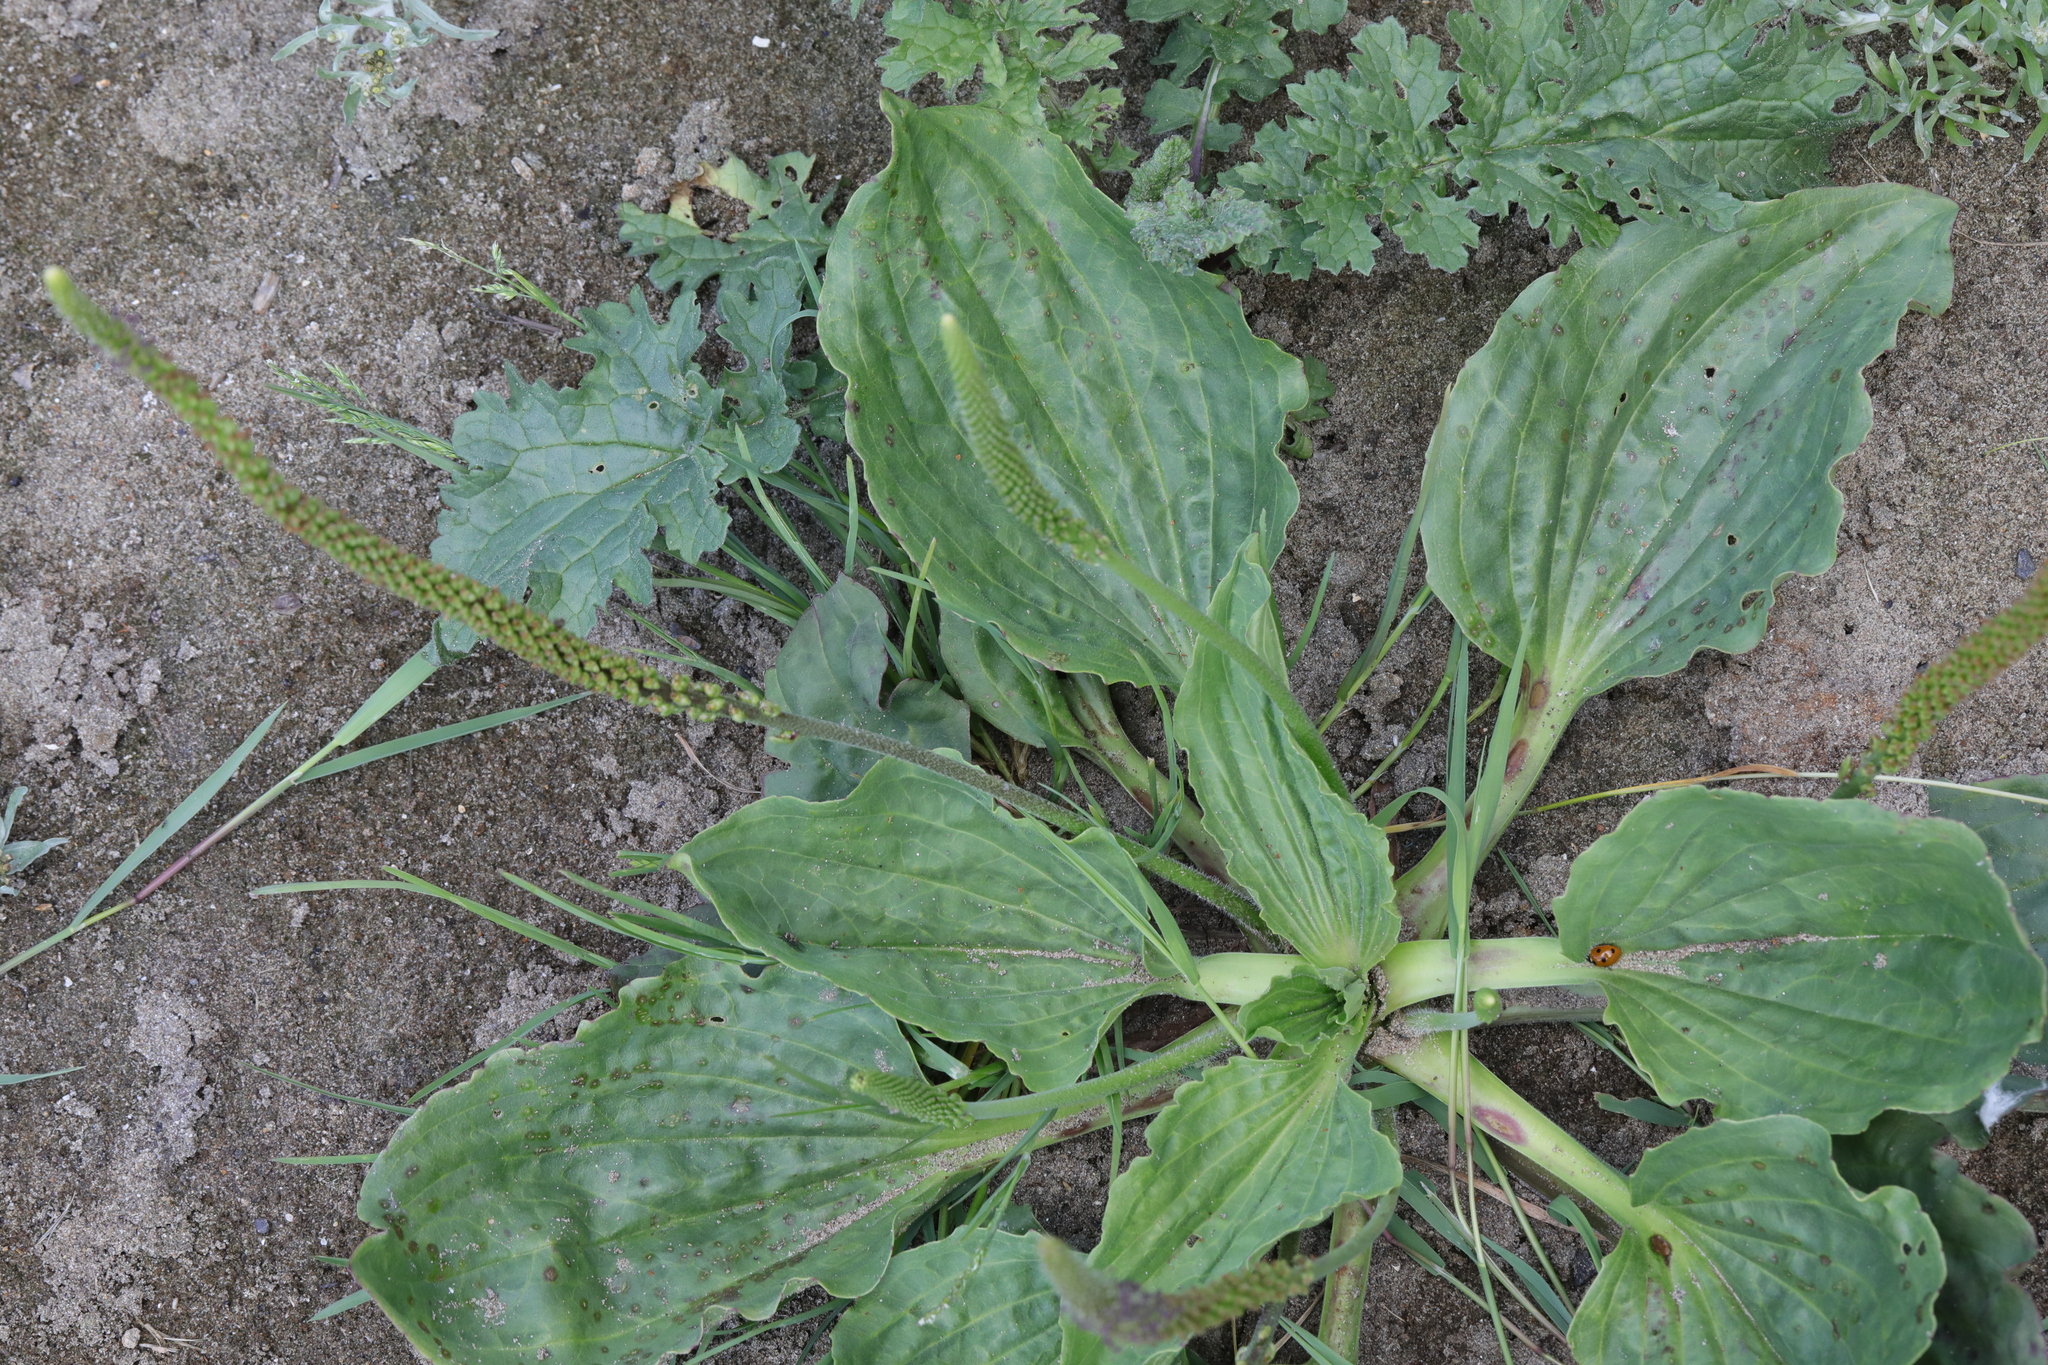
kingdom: Plantae
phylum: Tracheophyta
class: Magnoliopsida
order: Lamiales
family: Plantaginaceae
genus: Plantago
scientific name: Plantago major
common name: Common plantain
